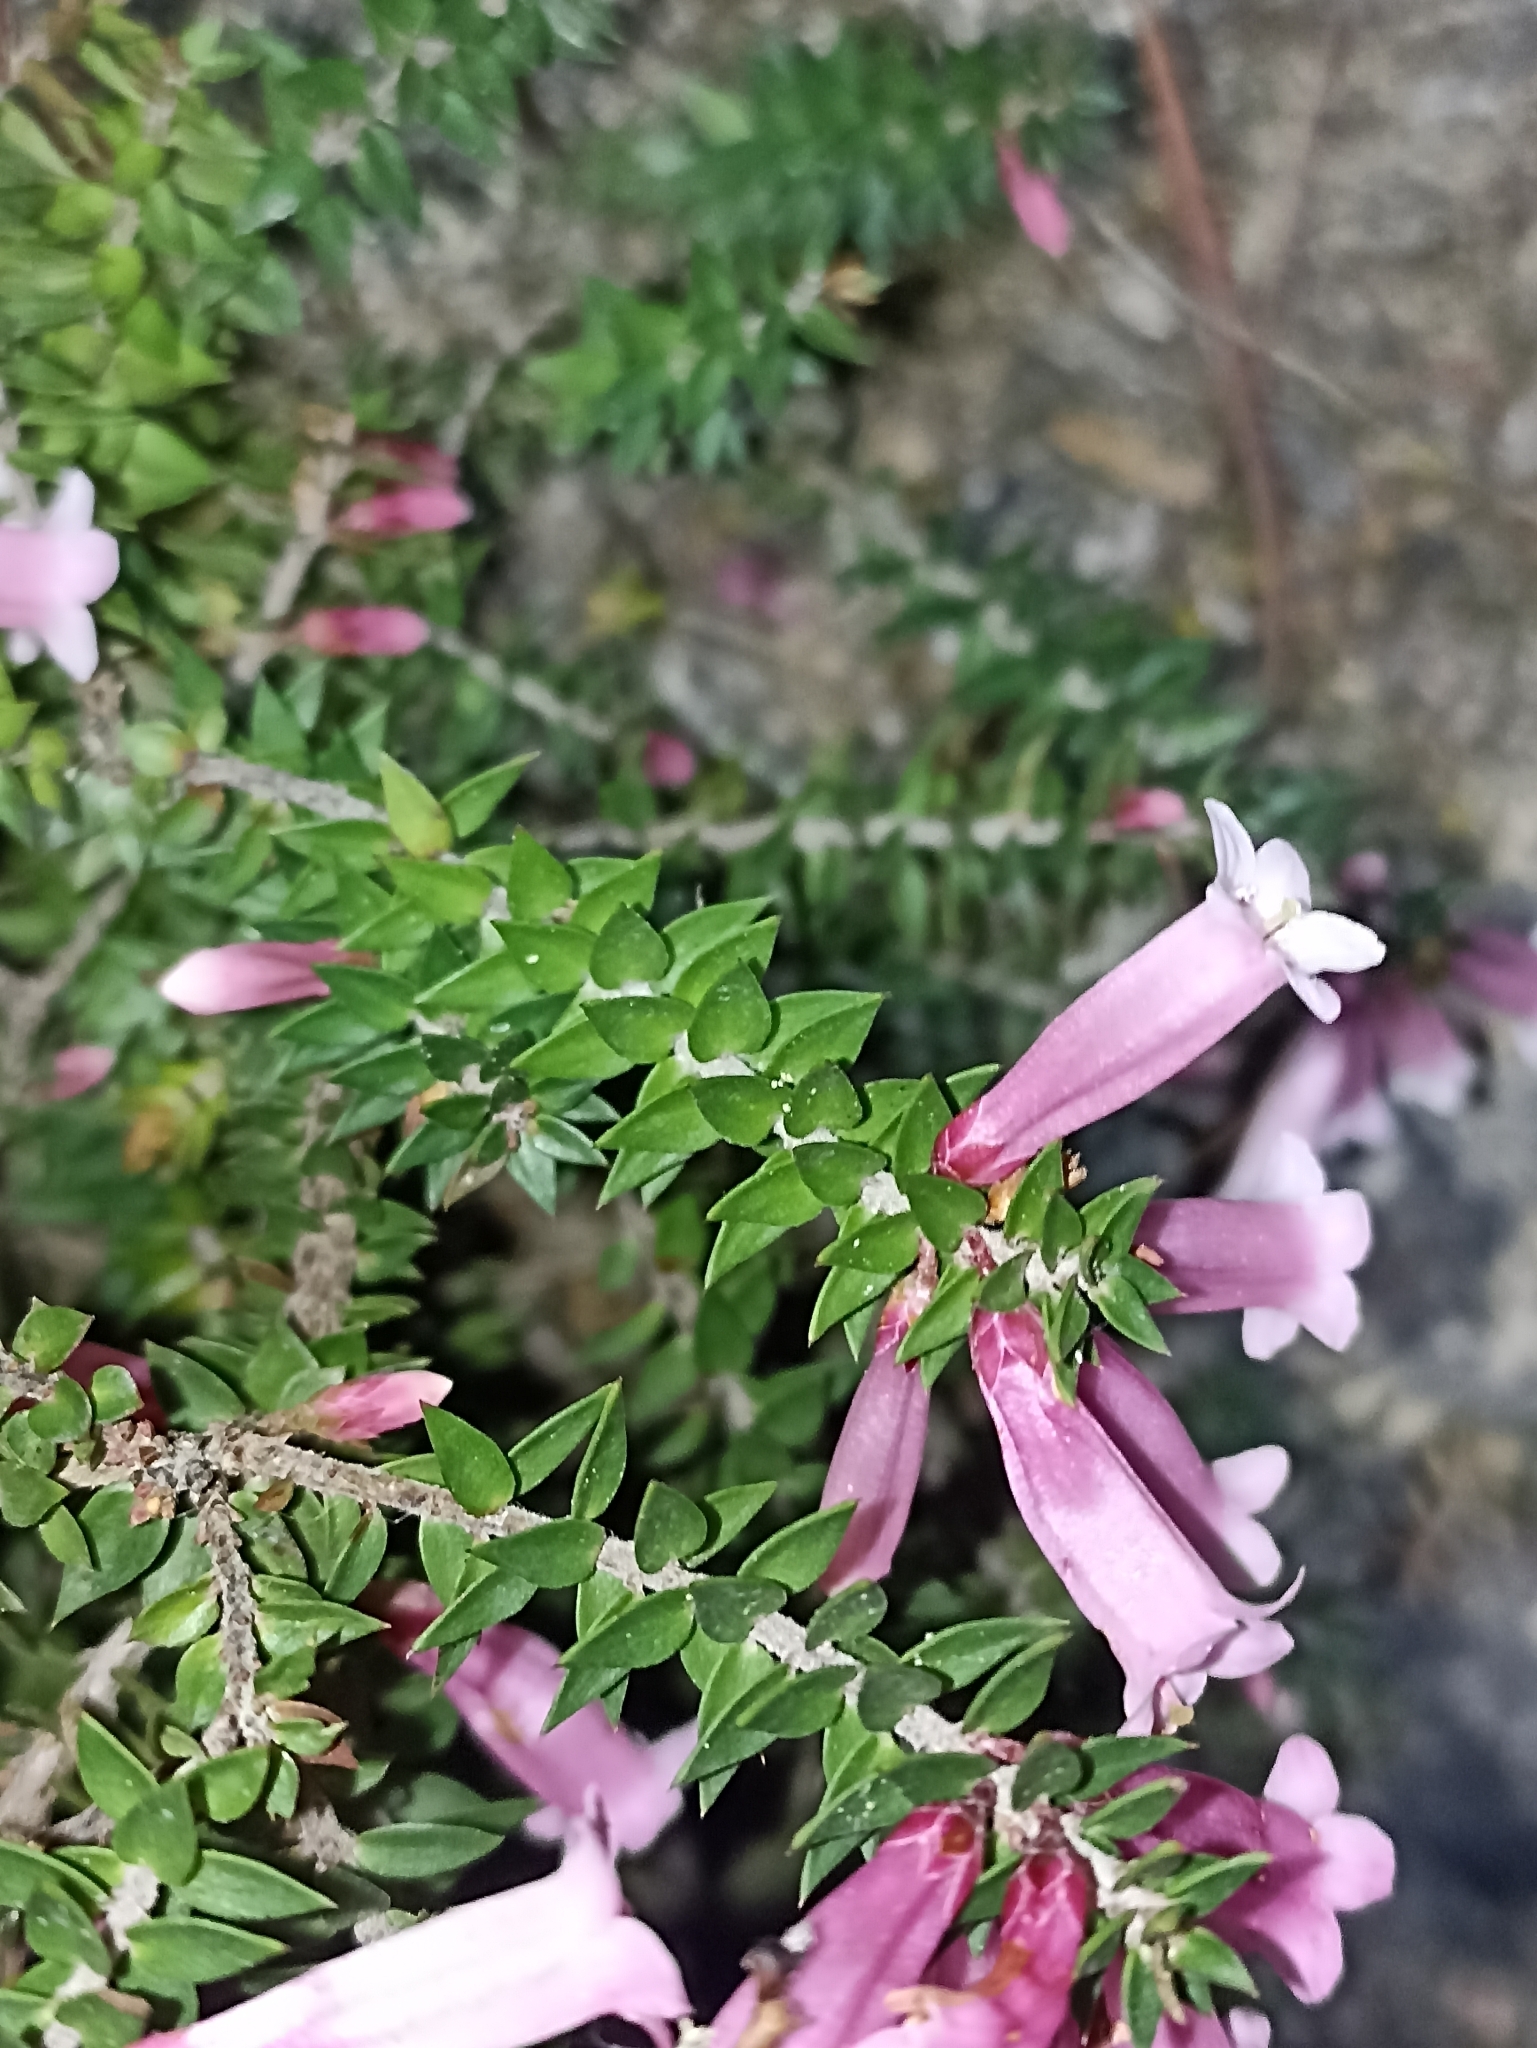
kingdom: Plantae
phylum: Tracheophyta
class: Magnoliopsida
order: Ericales
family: Ericaceae
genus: Epacris
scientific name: Epacris reclinata
